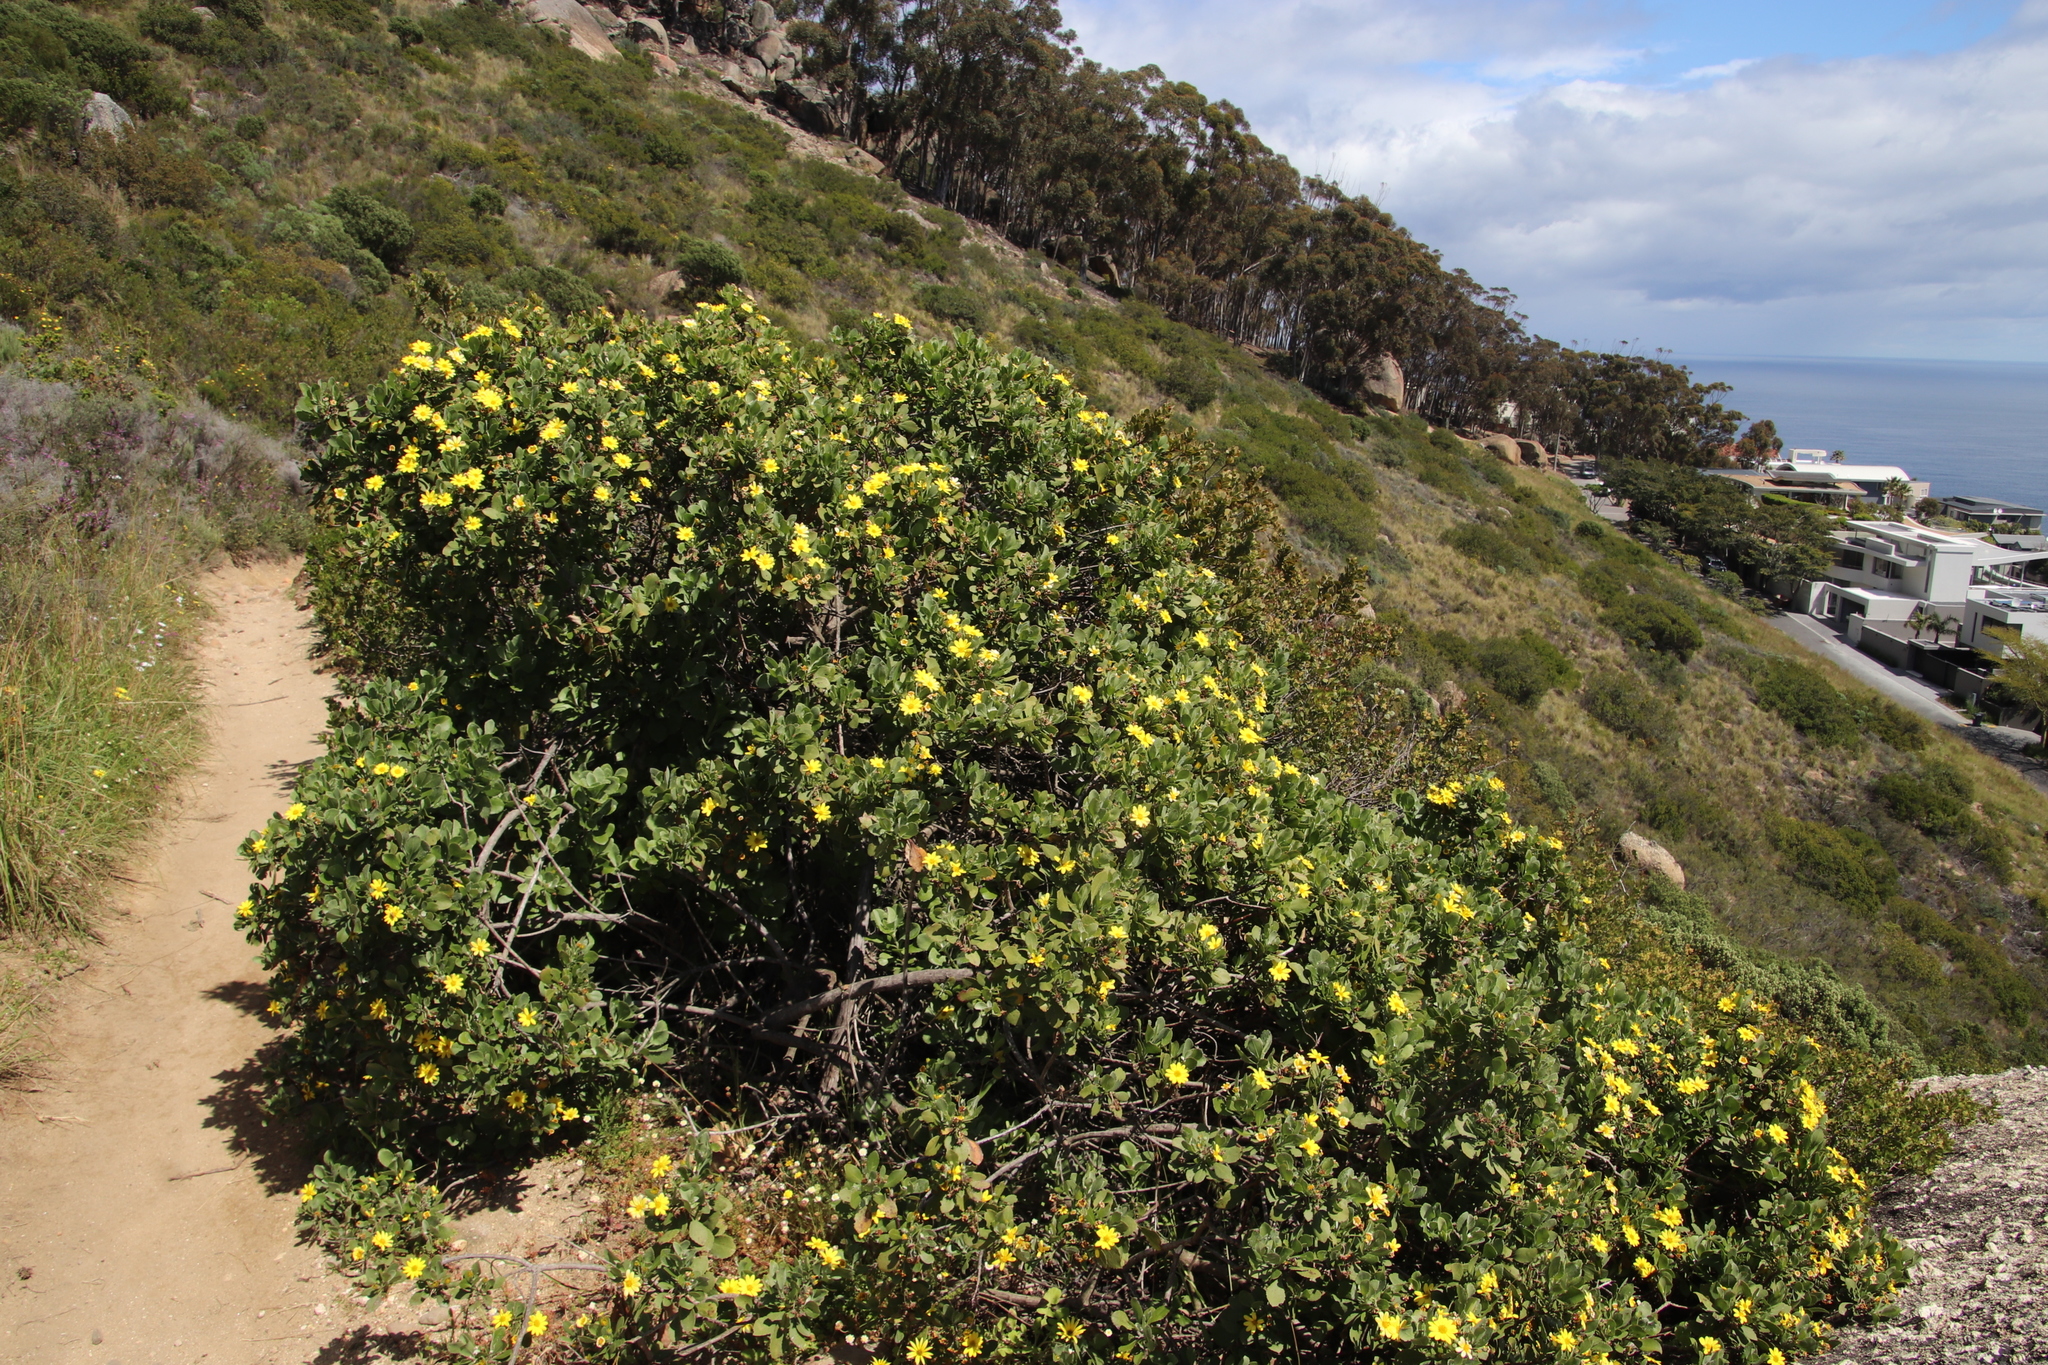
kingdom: Plantae
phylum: Tracheophyta
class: Magnoliopsida
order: Asterales
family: Asteraceae
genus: Osteospermum
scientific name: Osteospermum moniliferum
